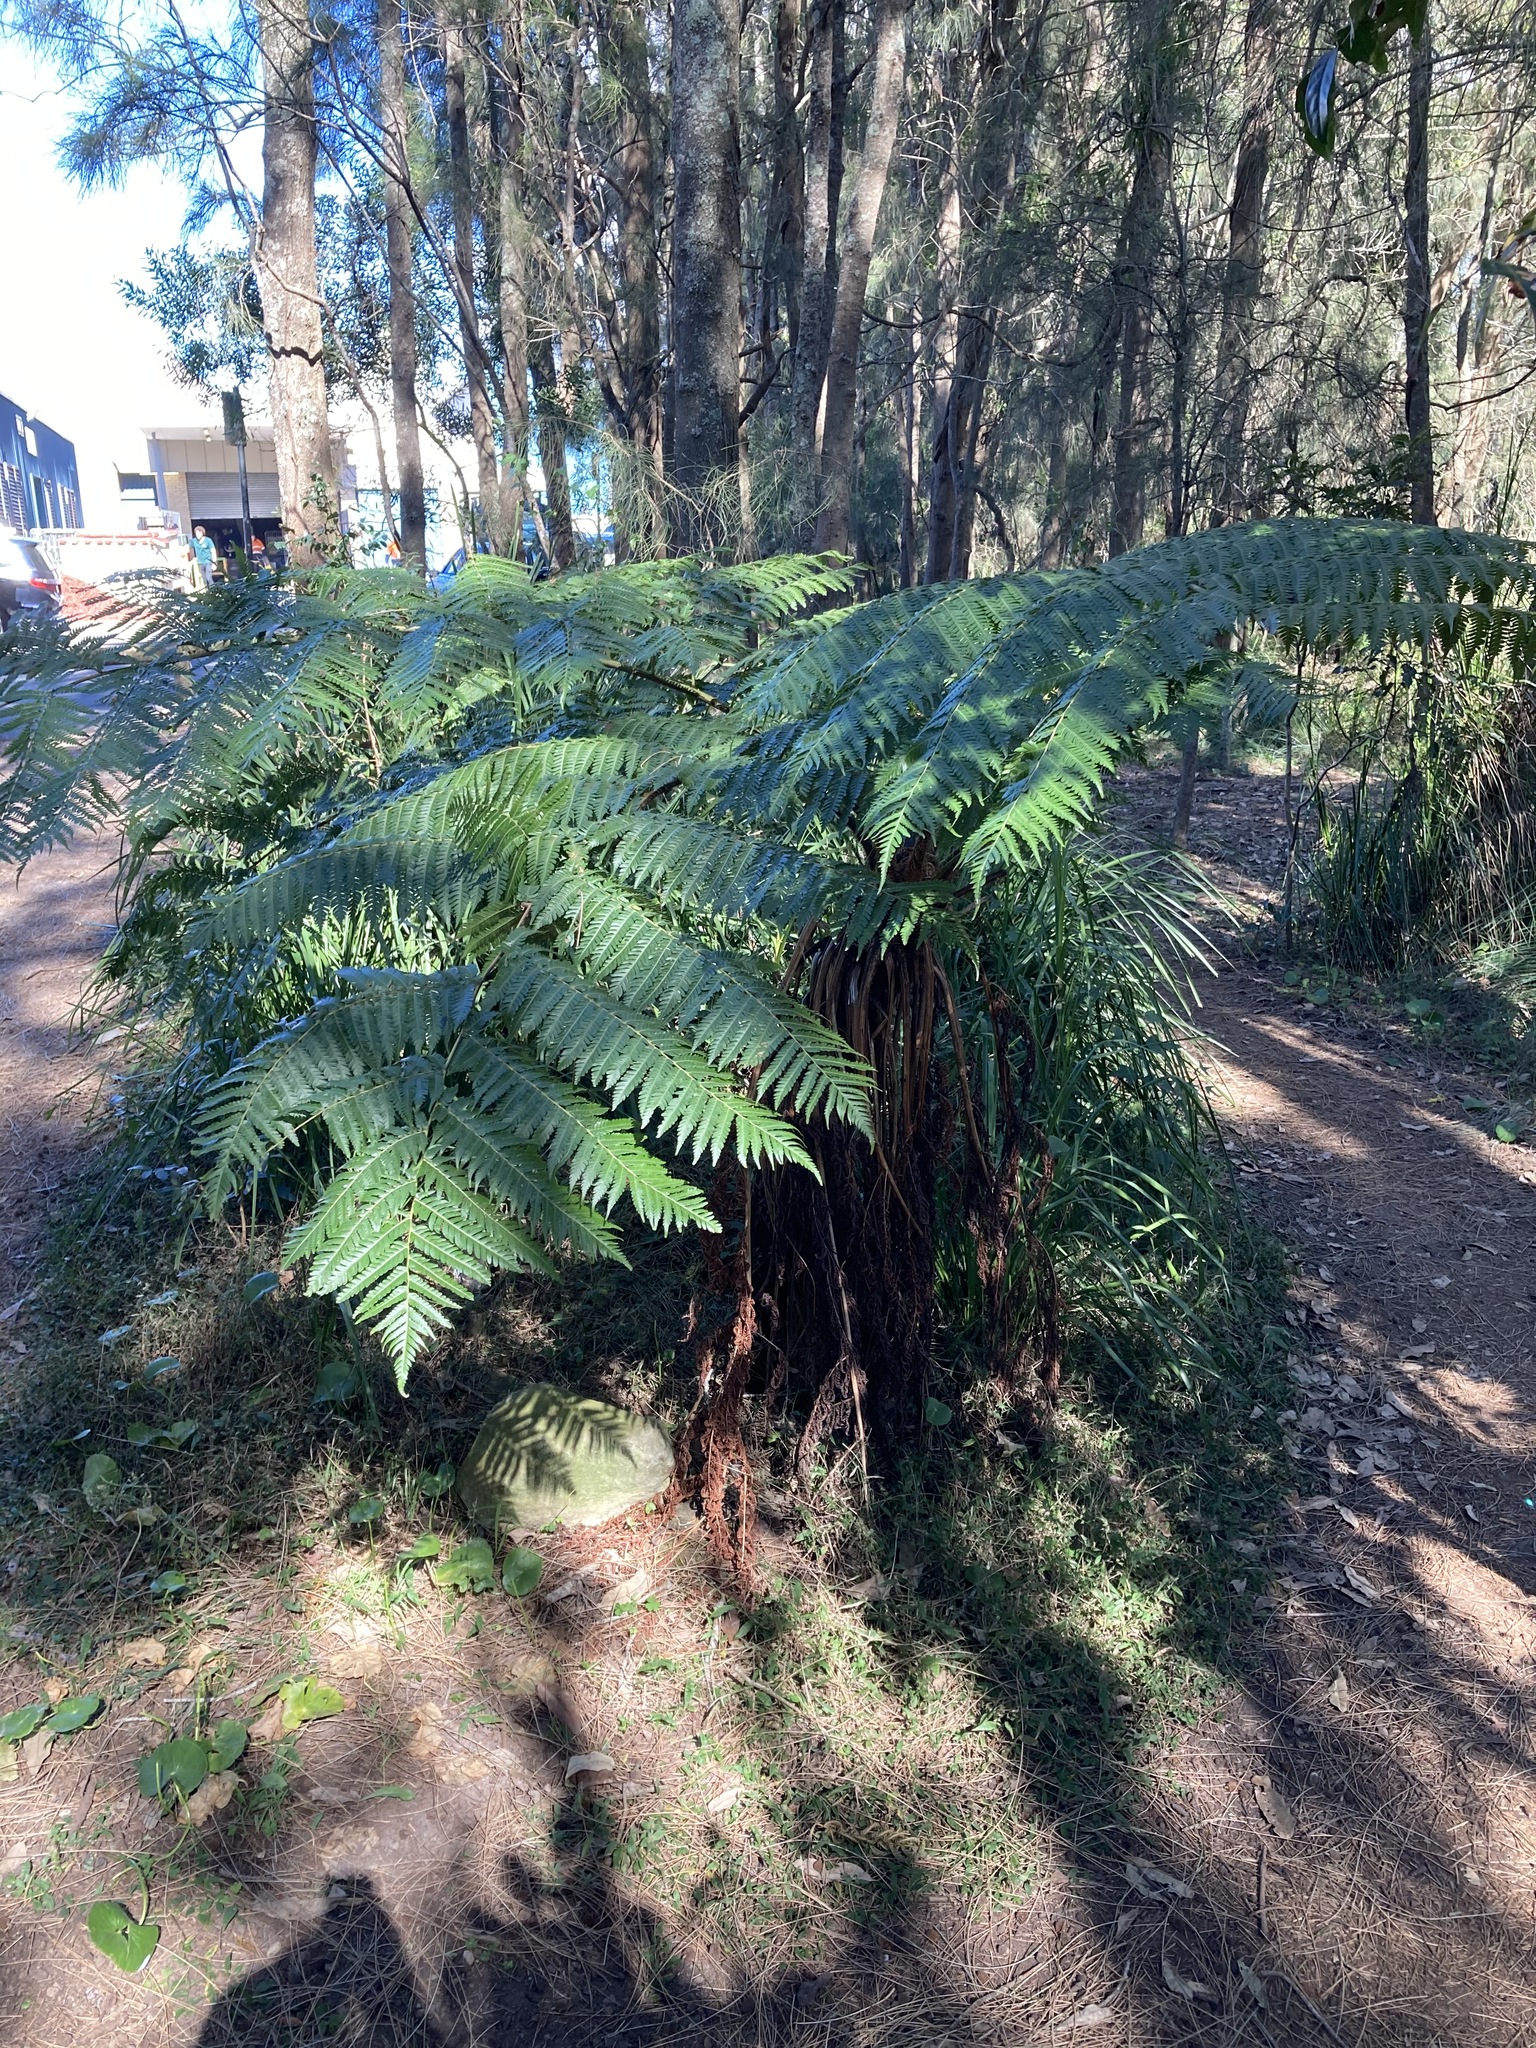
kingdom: Plantae
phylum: Tracheophyta
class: Polypodiopsida
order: Cyatheales
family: Cyatheaceae
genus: Sphaeropteris
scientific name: Sphaeropteris cooperi
